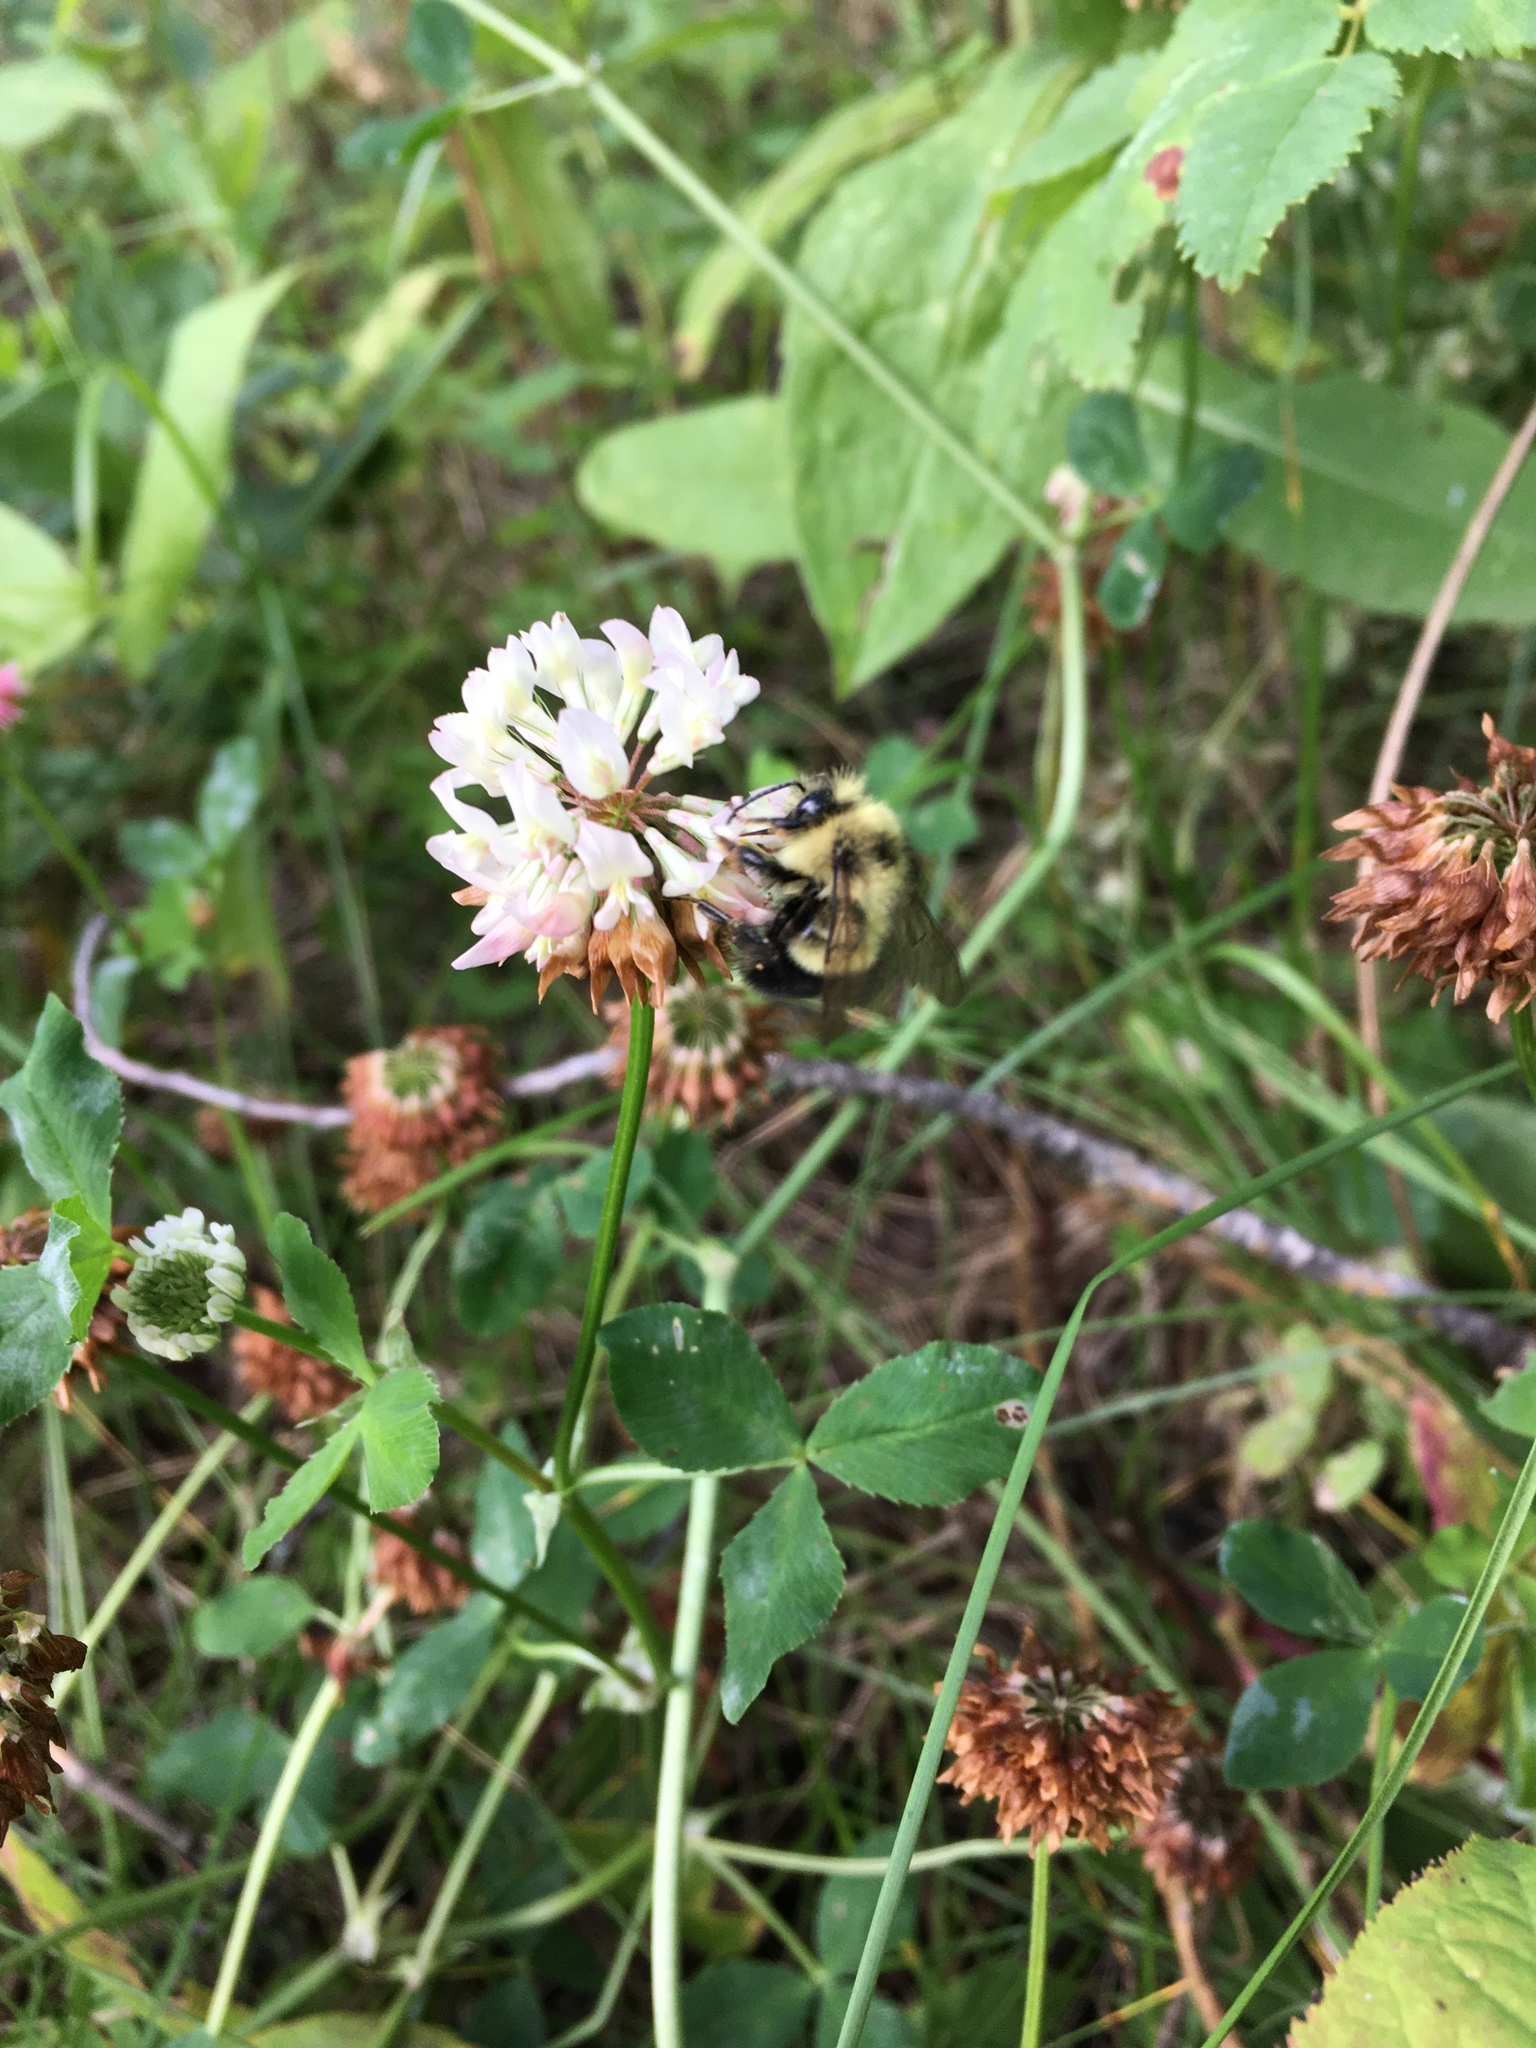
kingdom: Animalia
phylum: Arthropoda
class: Insecta
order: Hymenoptera
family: Apidae
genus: Bombus
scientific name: Bombus vagans
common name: Half-black bumble bee
